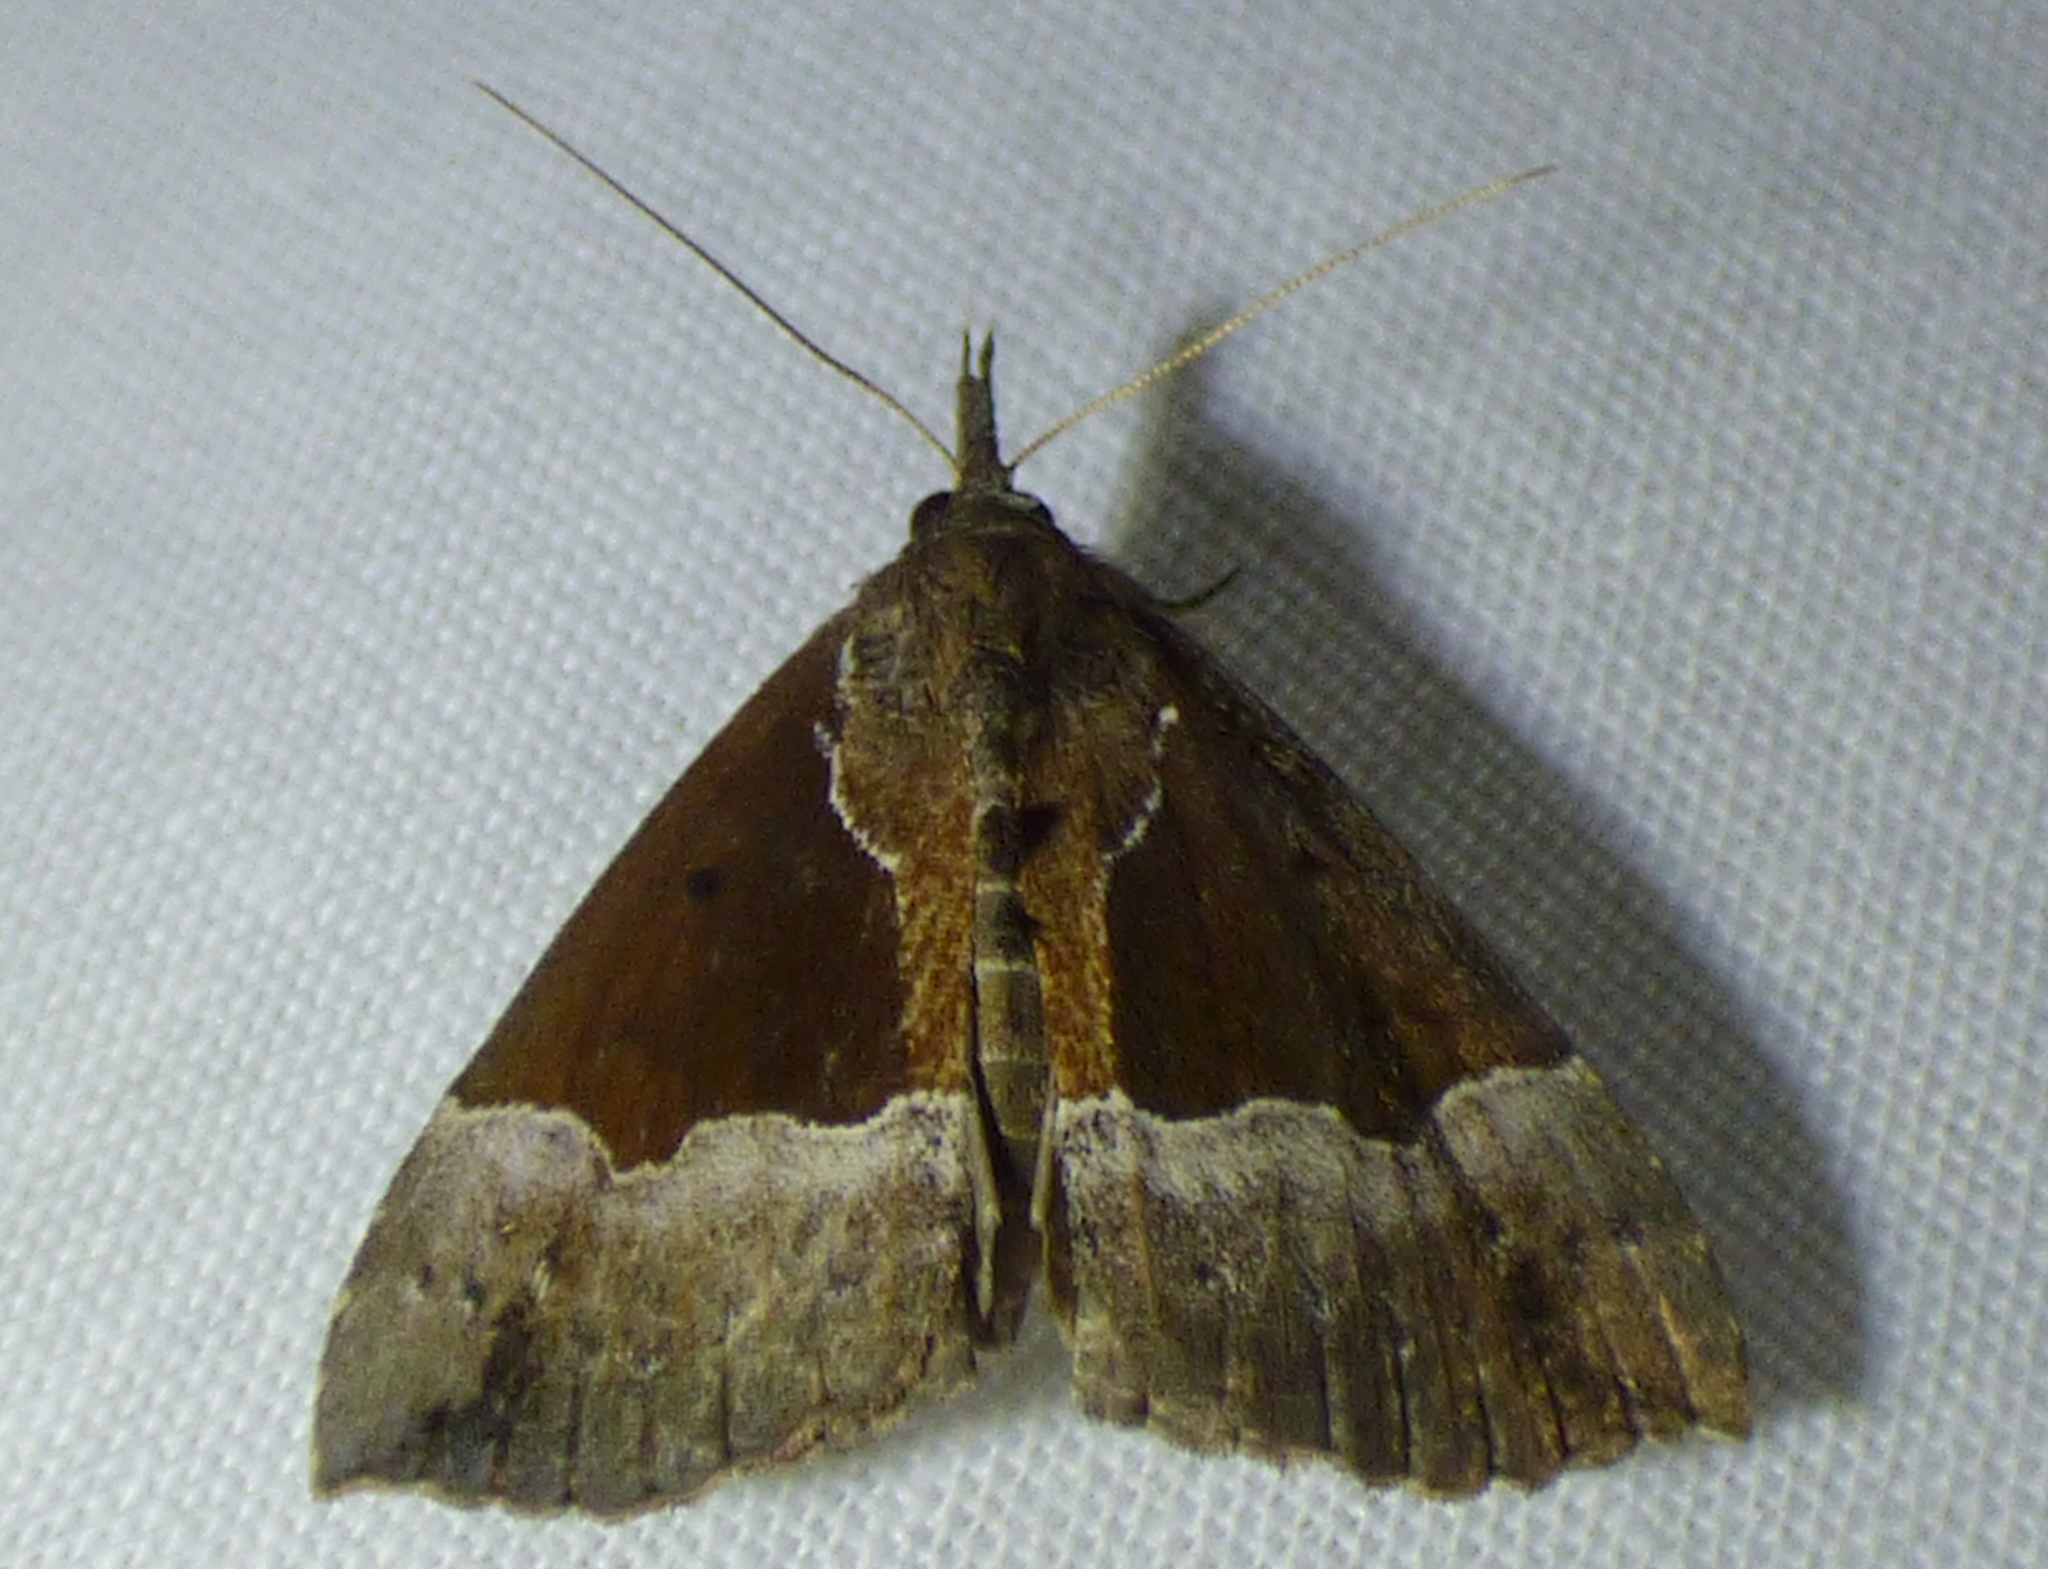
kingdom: Animalia
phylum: Arthropoda
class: Insecta
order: Lepidoptera
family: Erebidae
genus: Hypena
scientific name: Hypena bijugalis
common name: Dimorphic bomolocha moth
